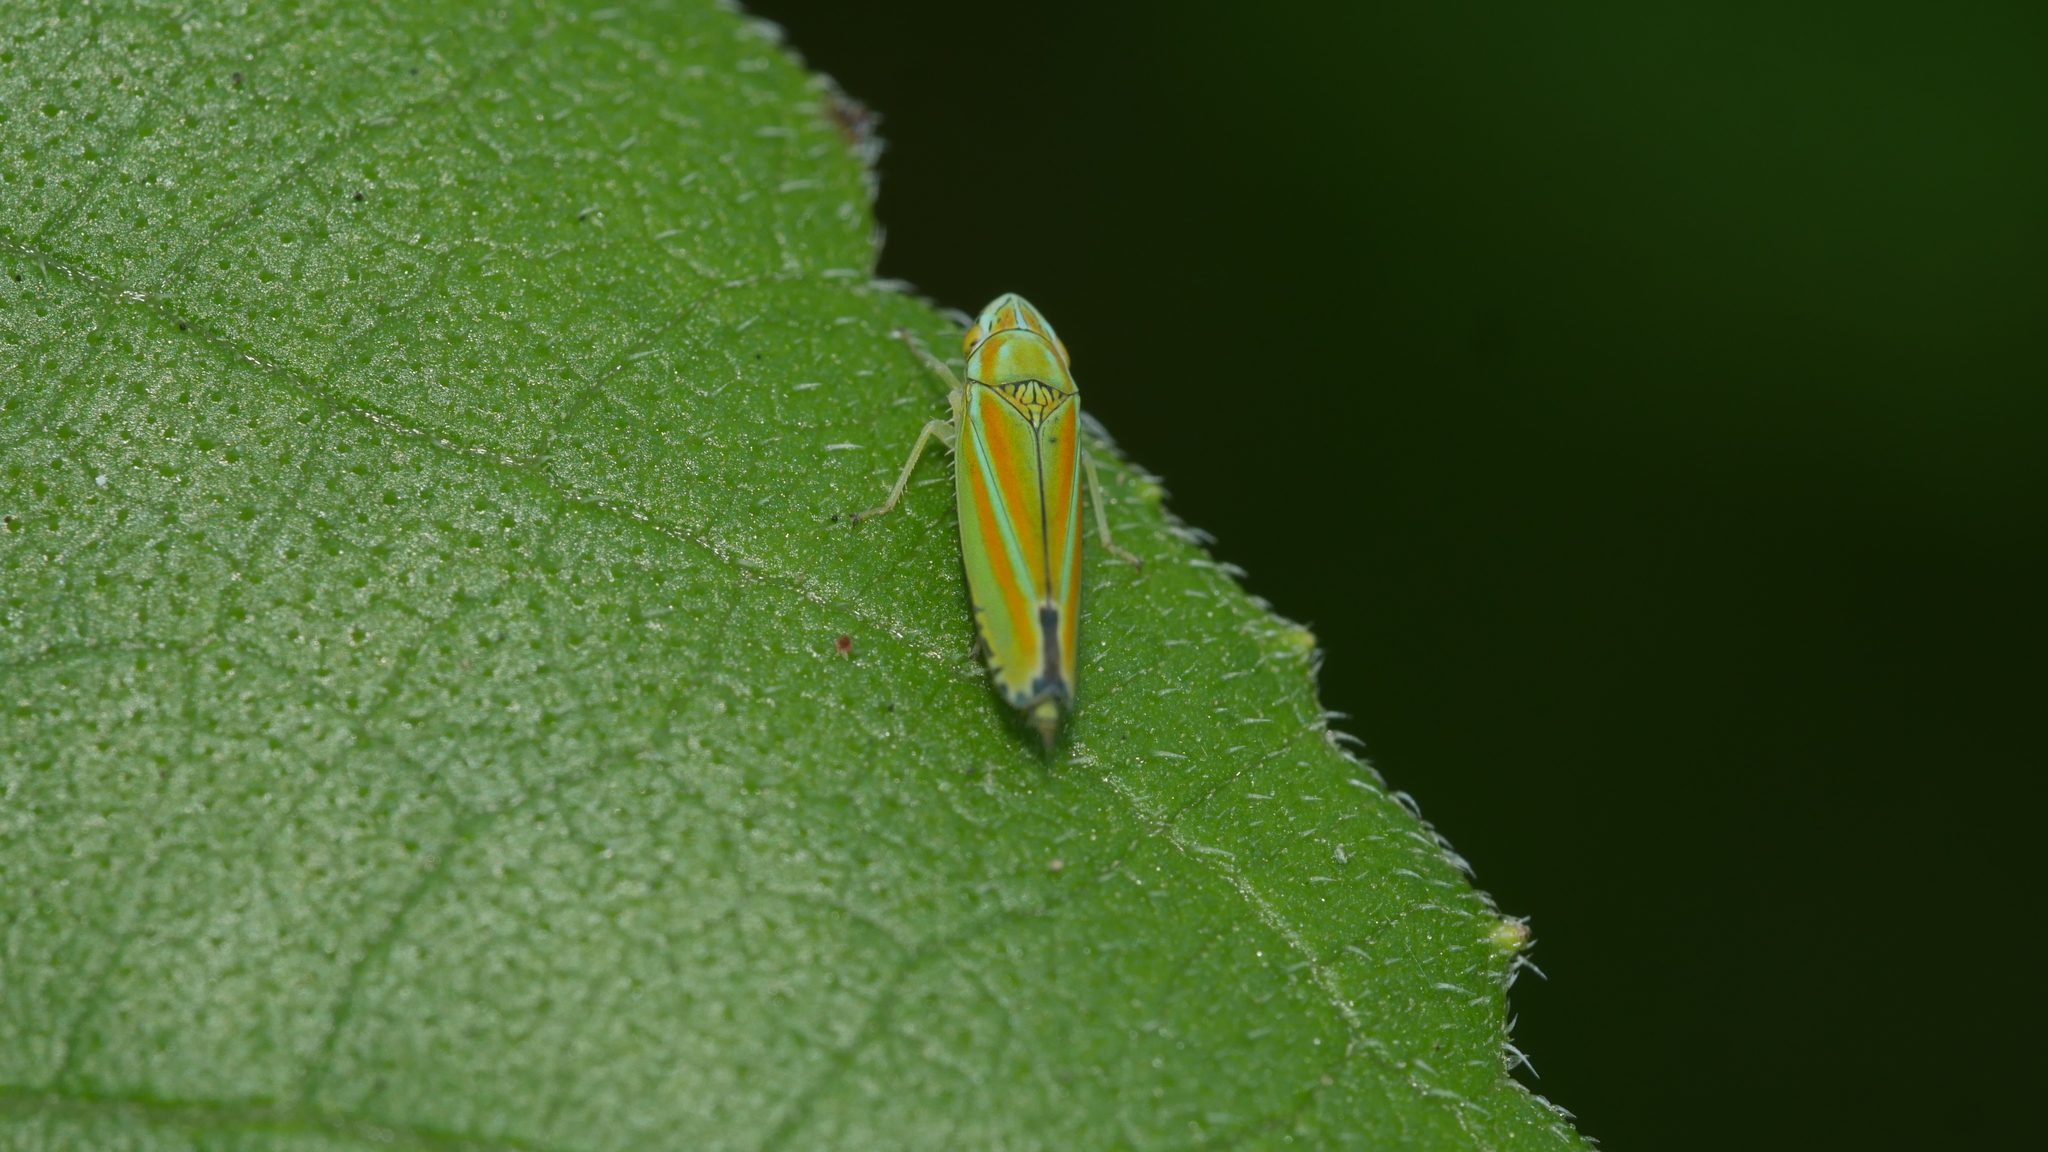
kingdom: Animalia
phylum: Arthropoda
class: Insecta
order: Hemiptera
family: Cicadellidae
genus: Graphocephala
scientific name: Graphocephala versuta
